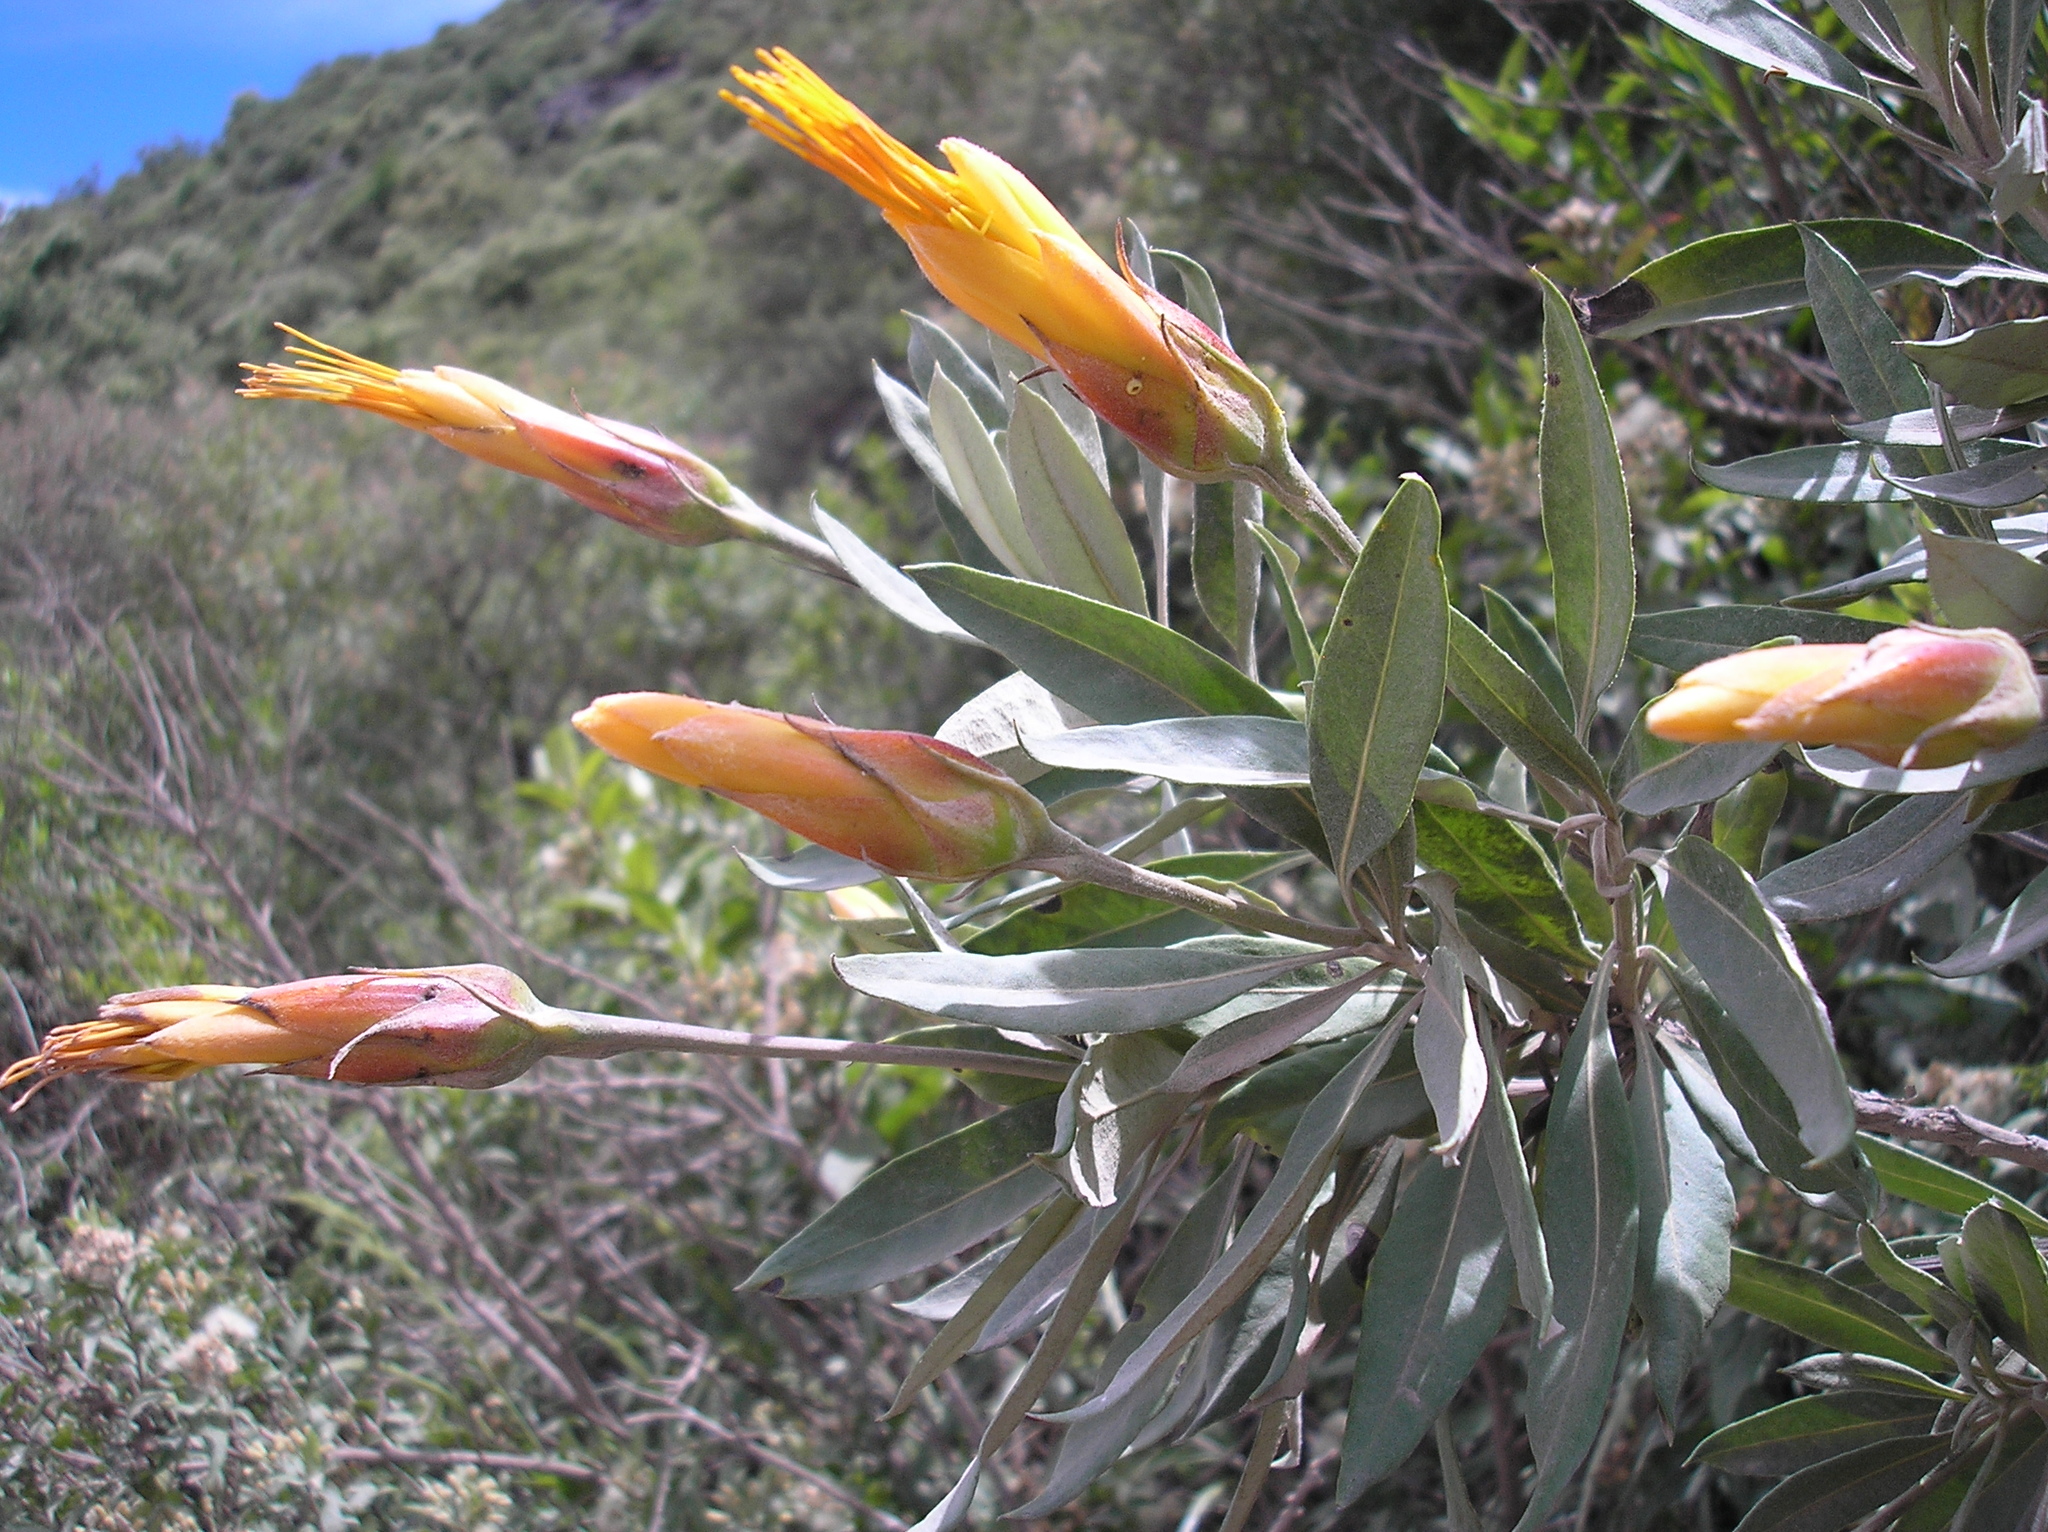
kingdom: Plantae
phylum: Tracheophyta
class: Magnoliopsida
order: Asterales
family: Asteraceae
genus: Mutisia
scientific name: Mutisia kurtzii
